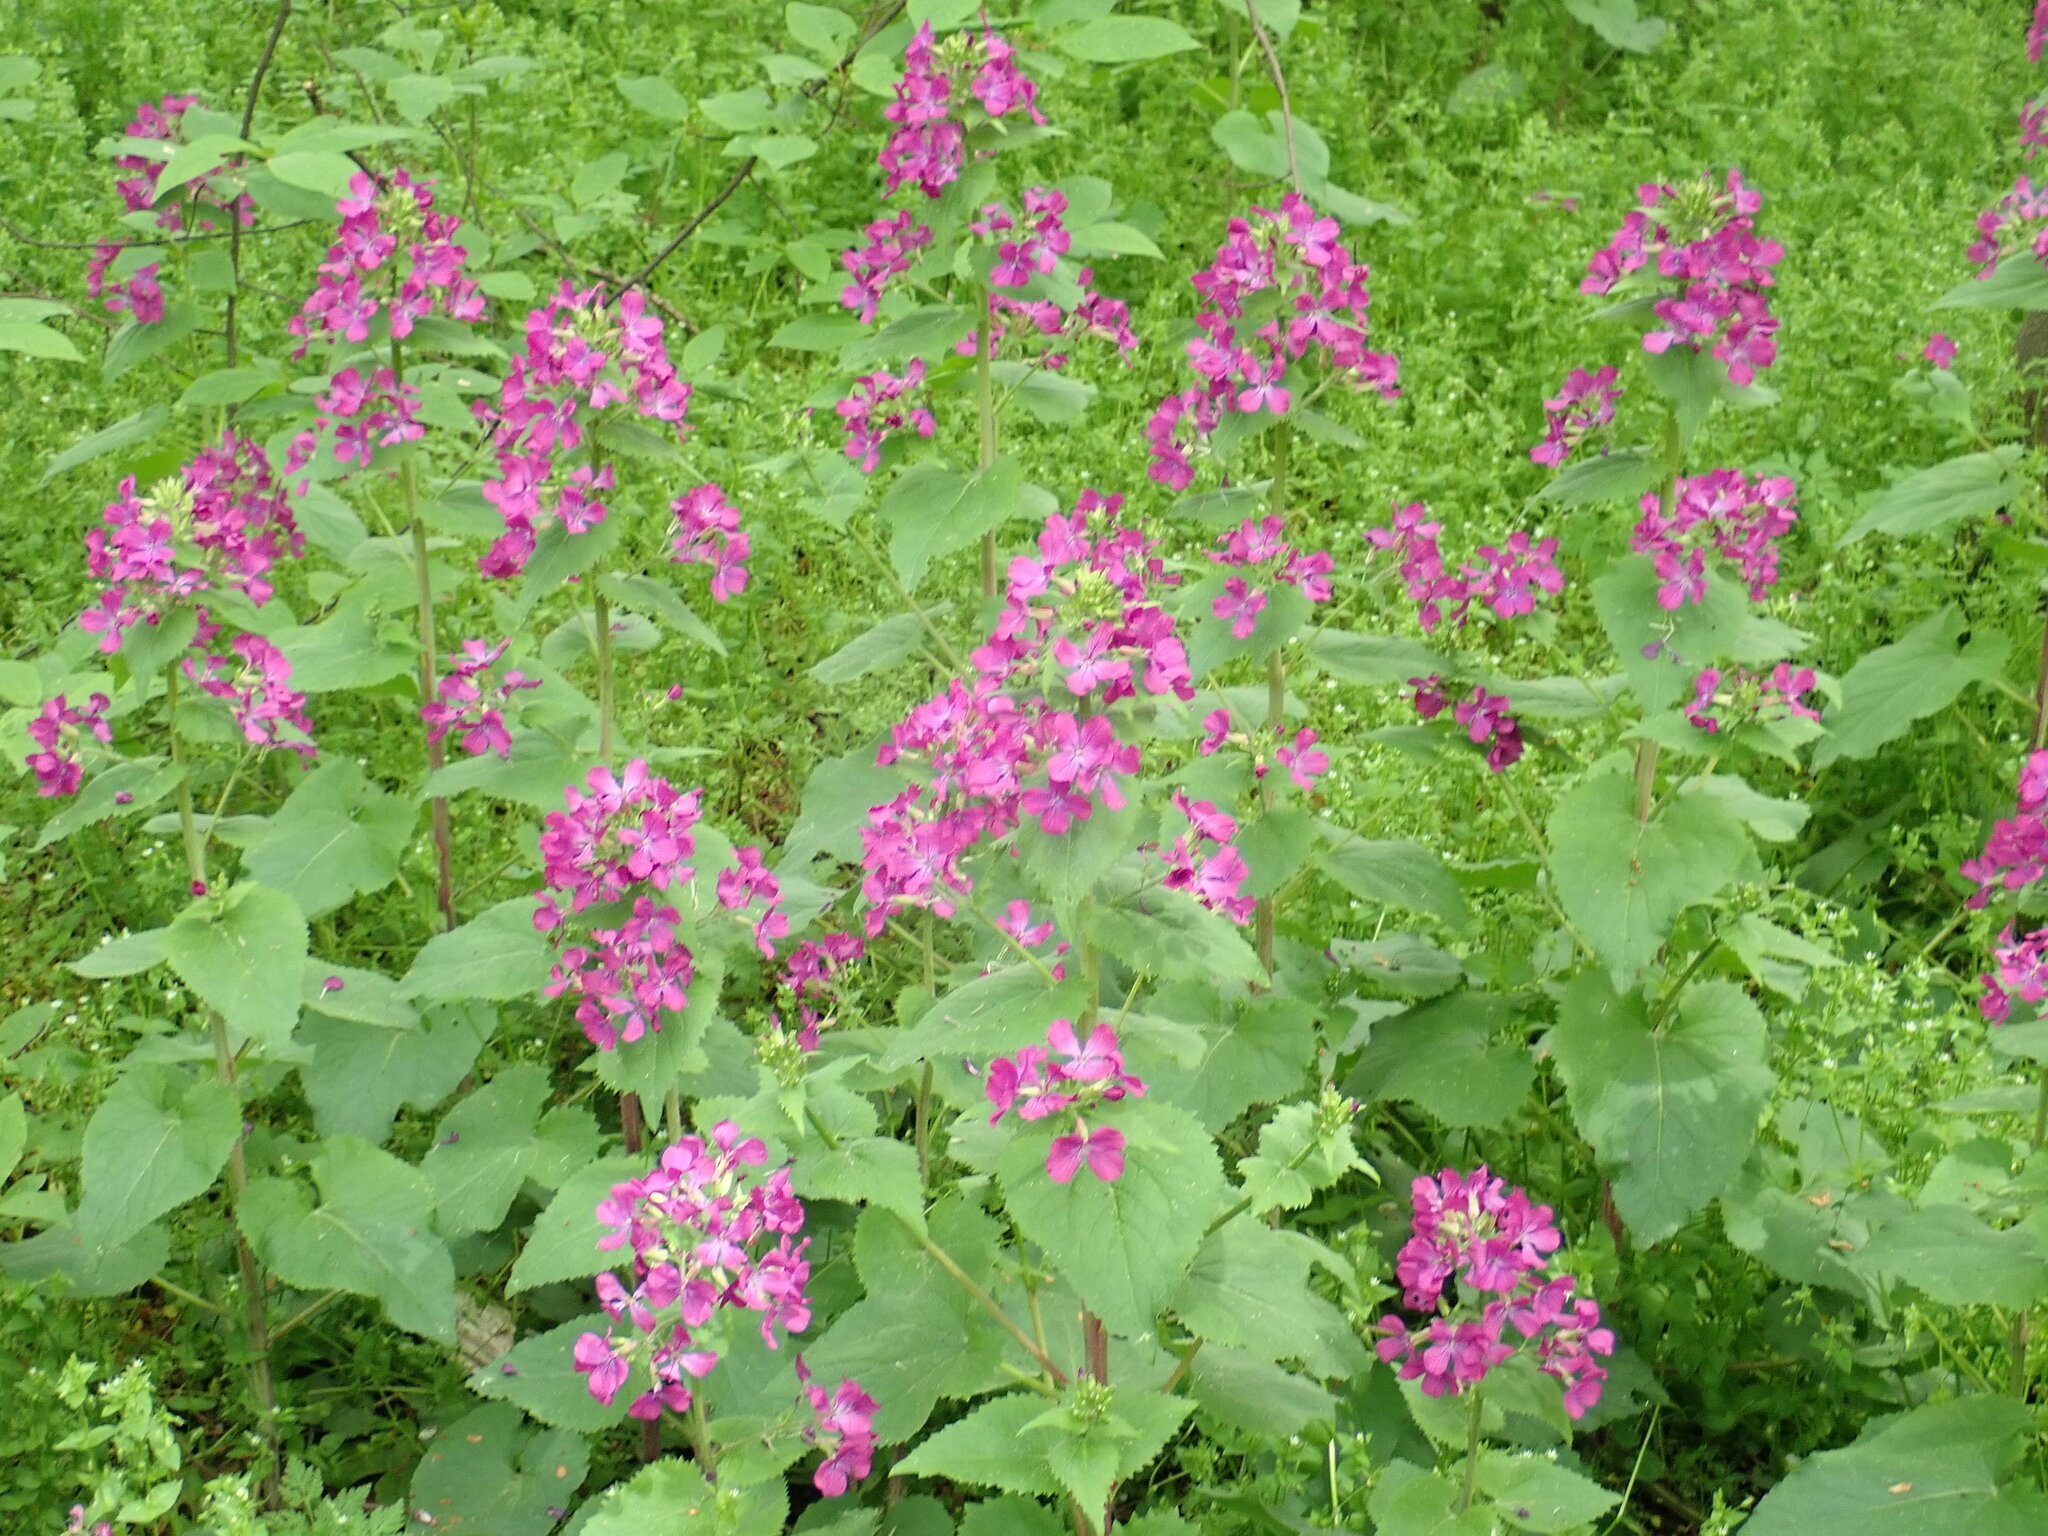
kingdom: Plantae
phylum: Tracheophyta
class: Magnoliopsida
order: Brassicales
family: Brassicaceae
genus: Lunaria
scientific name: Lunaria annua
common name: Honesty
